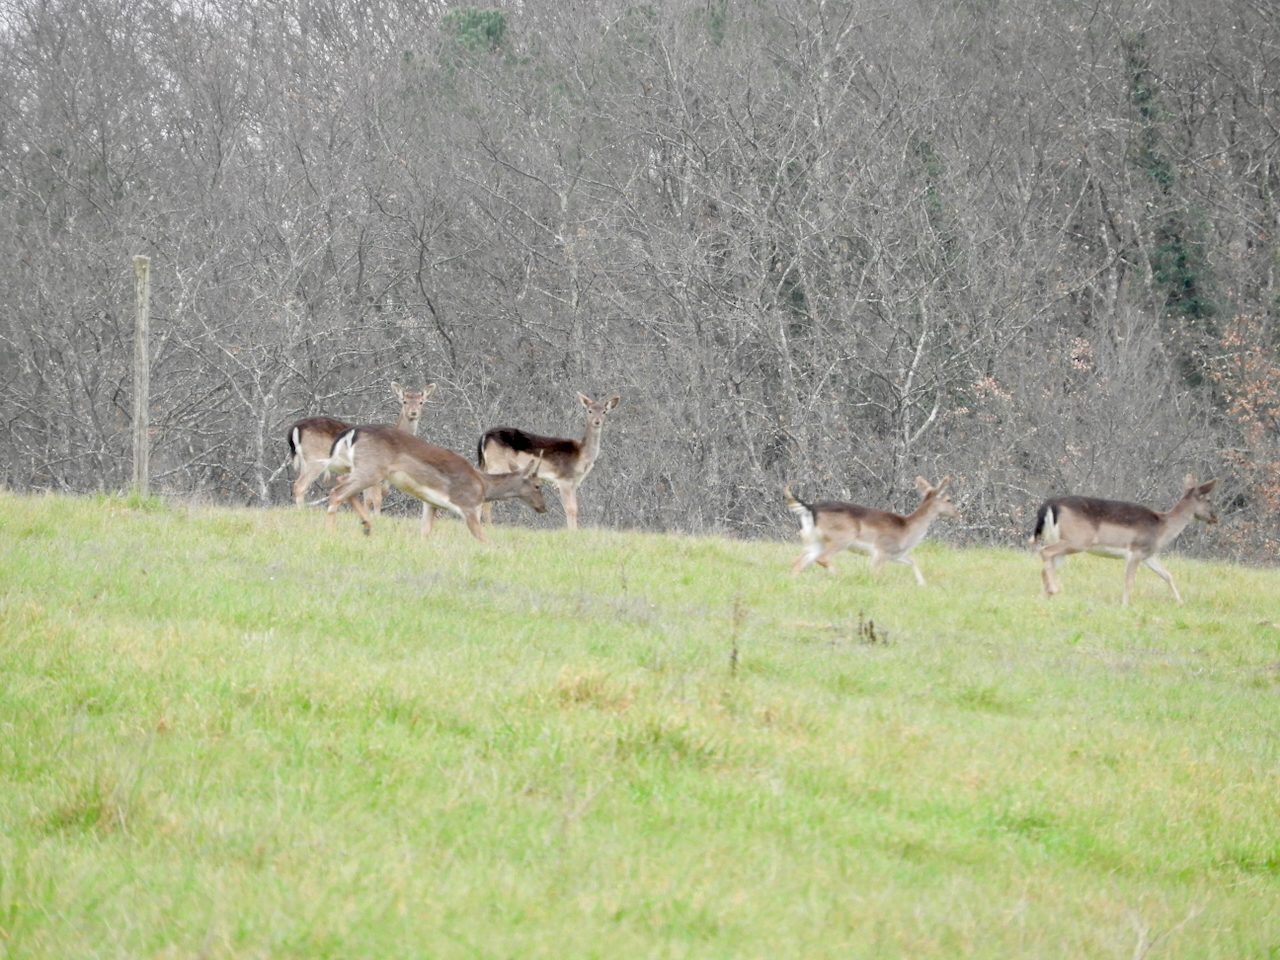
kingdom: Animalia
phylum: Chordata
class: Mammalia
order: Artiodactyla
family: Cervidae
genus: Dama
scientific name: Dama dama
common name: Fallow deer
